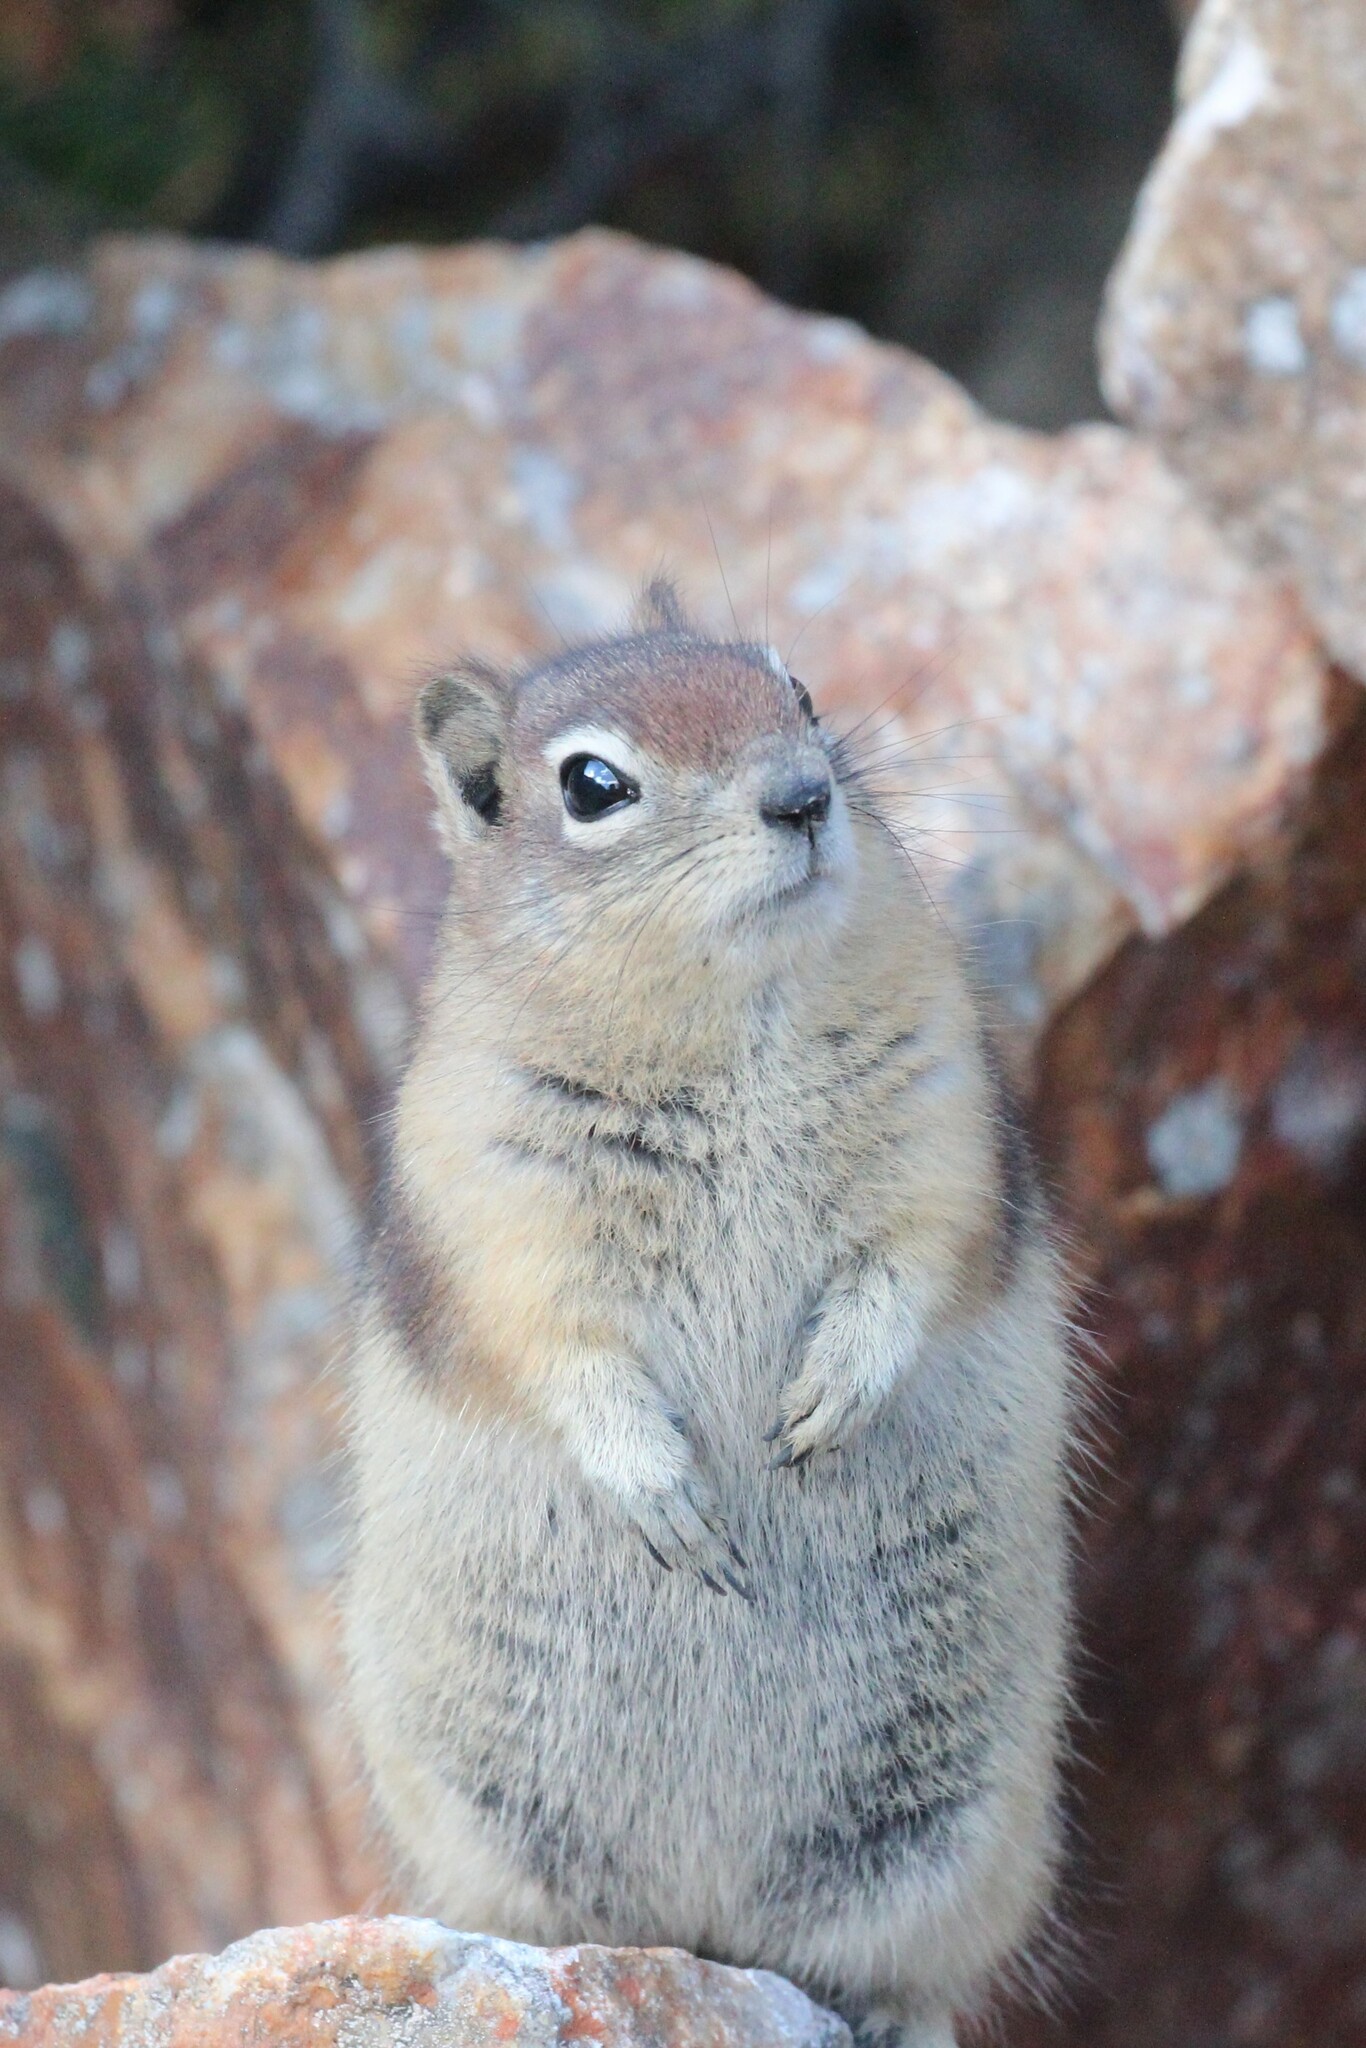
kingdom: Animalia
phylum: Chordata
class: Mammalia
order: Rodentia
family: Sciuridae
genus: Callospermophilus
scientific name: Callospermophilus lateralis
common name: Golden-mantled ground squirrel
